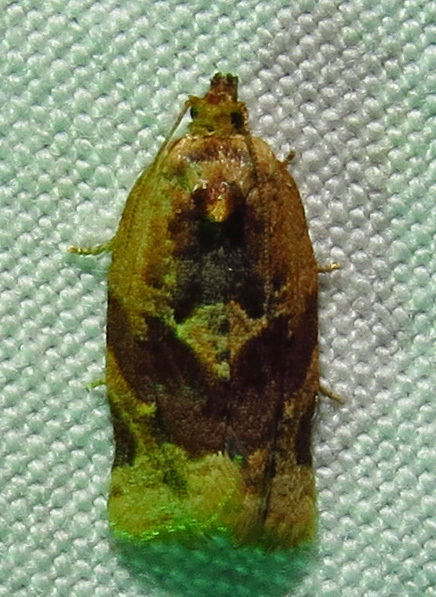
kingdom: Animalia
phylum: Arthropoda
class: Insecta
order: Lepidoptera
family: Tortricidae
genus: Argyrotaenia
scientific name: Argyrotaenia velutinana
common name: Red-banded leafroller moth
